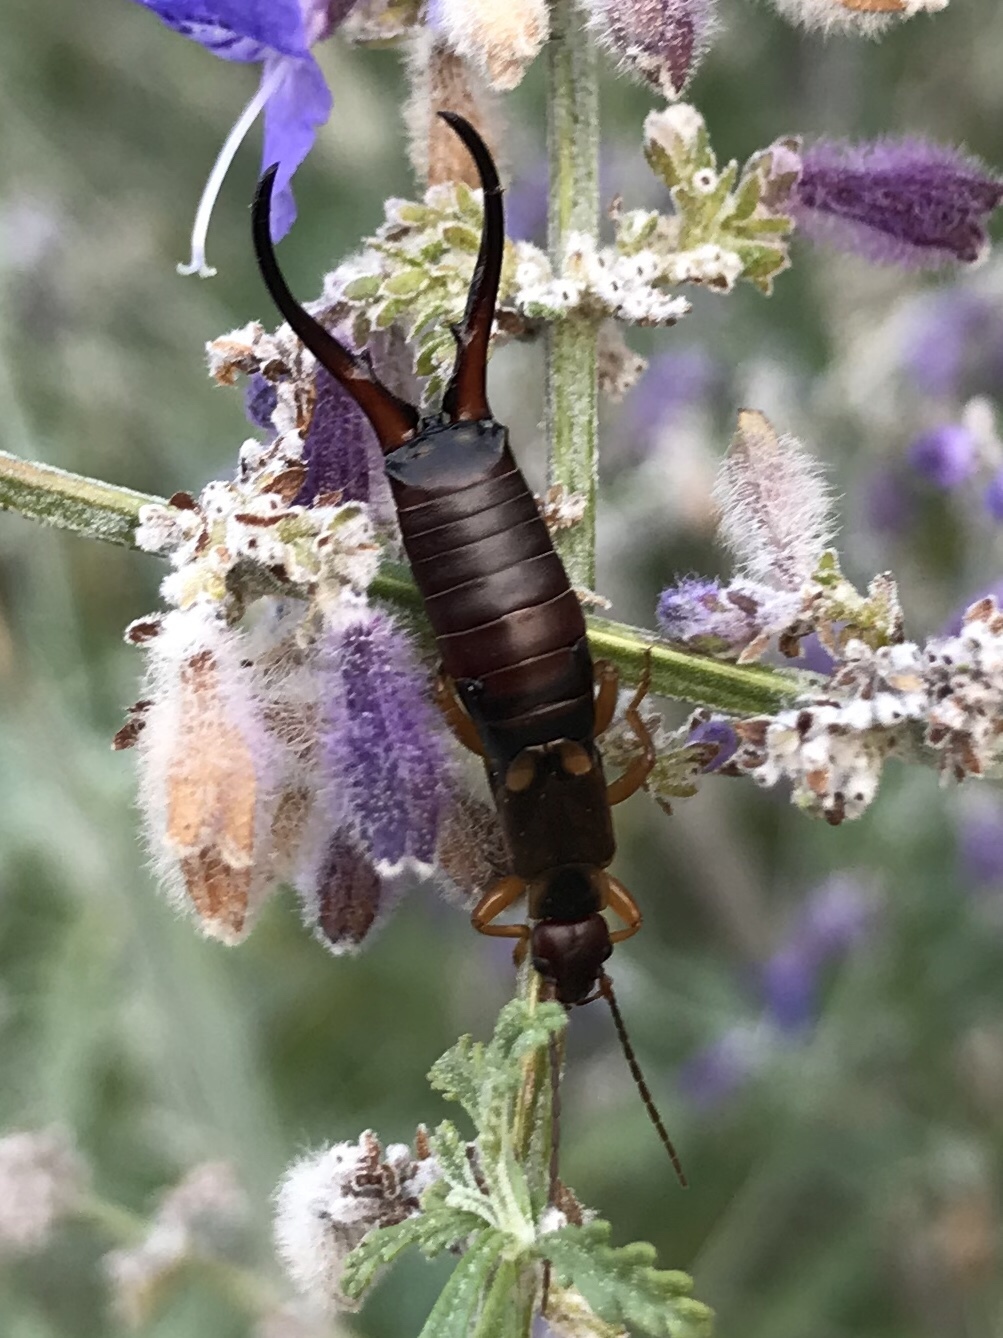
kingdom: Animalia
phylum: Arthropoda
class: Insecta
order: Dermaptera
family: Forficulidae
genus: Forficula
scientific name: Forficula
